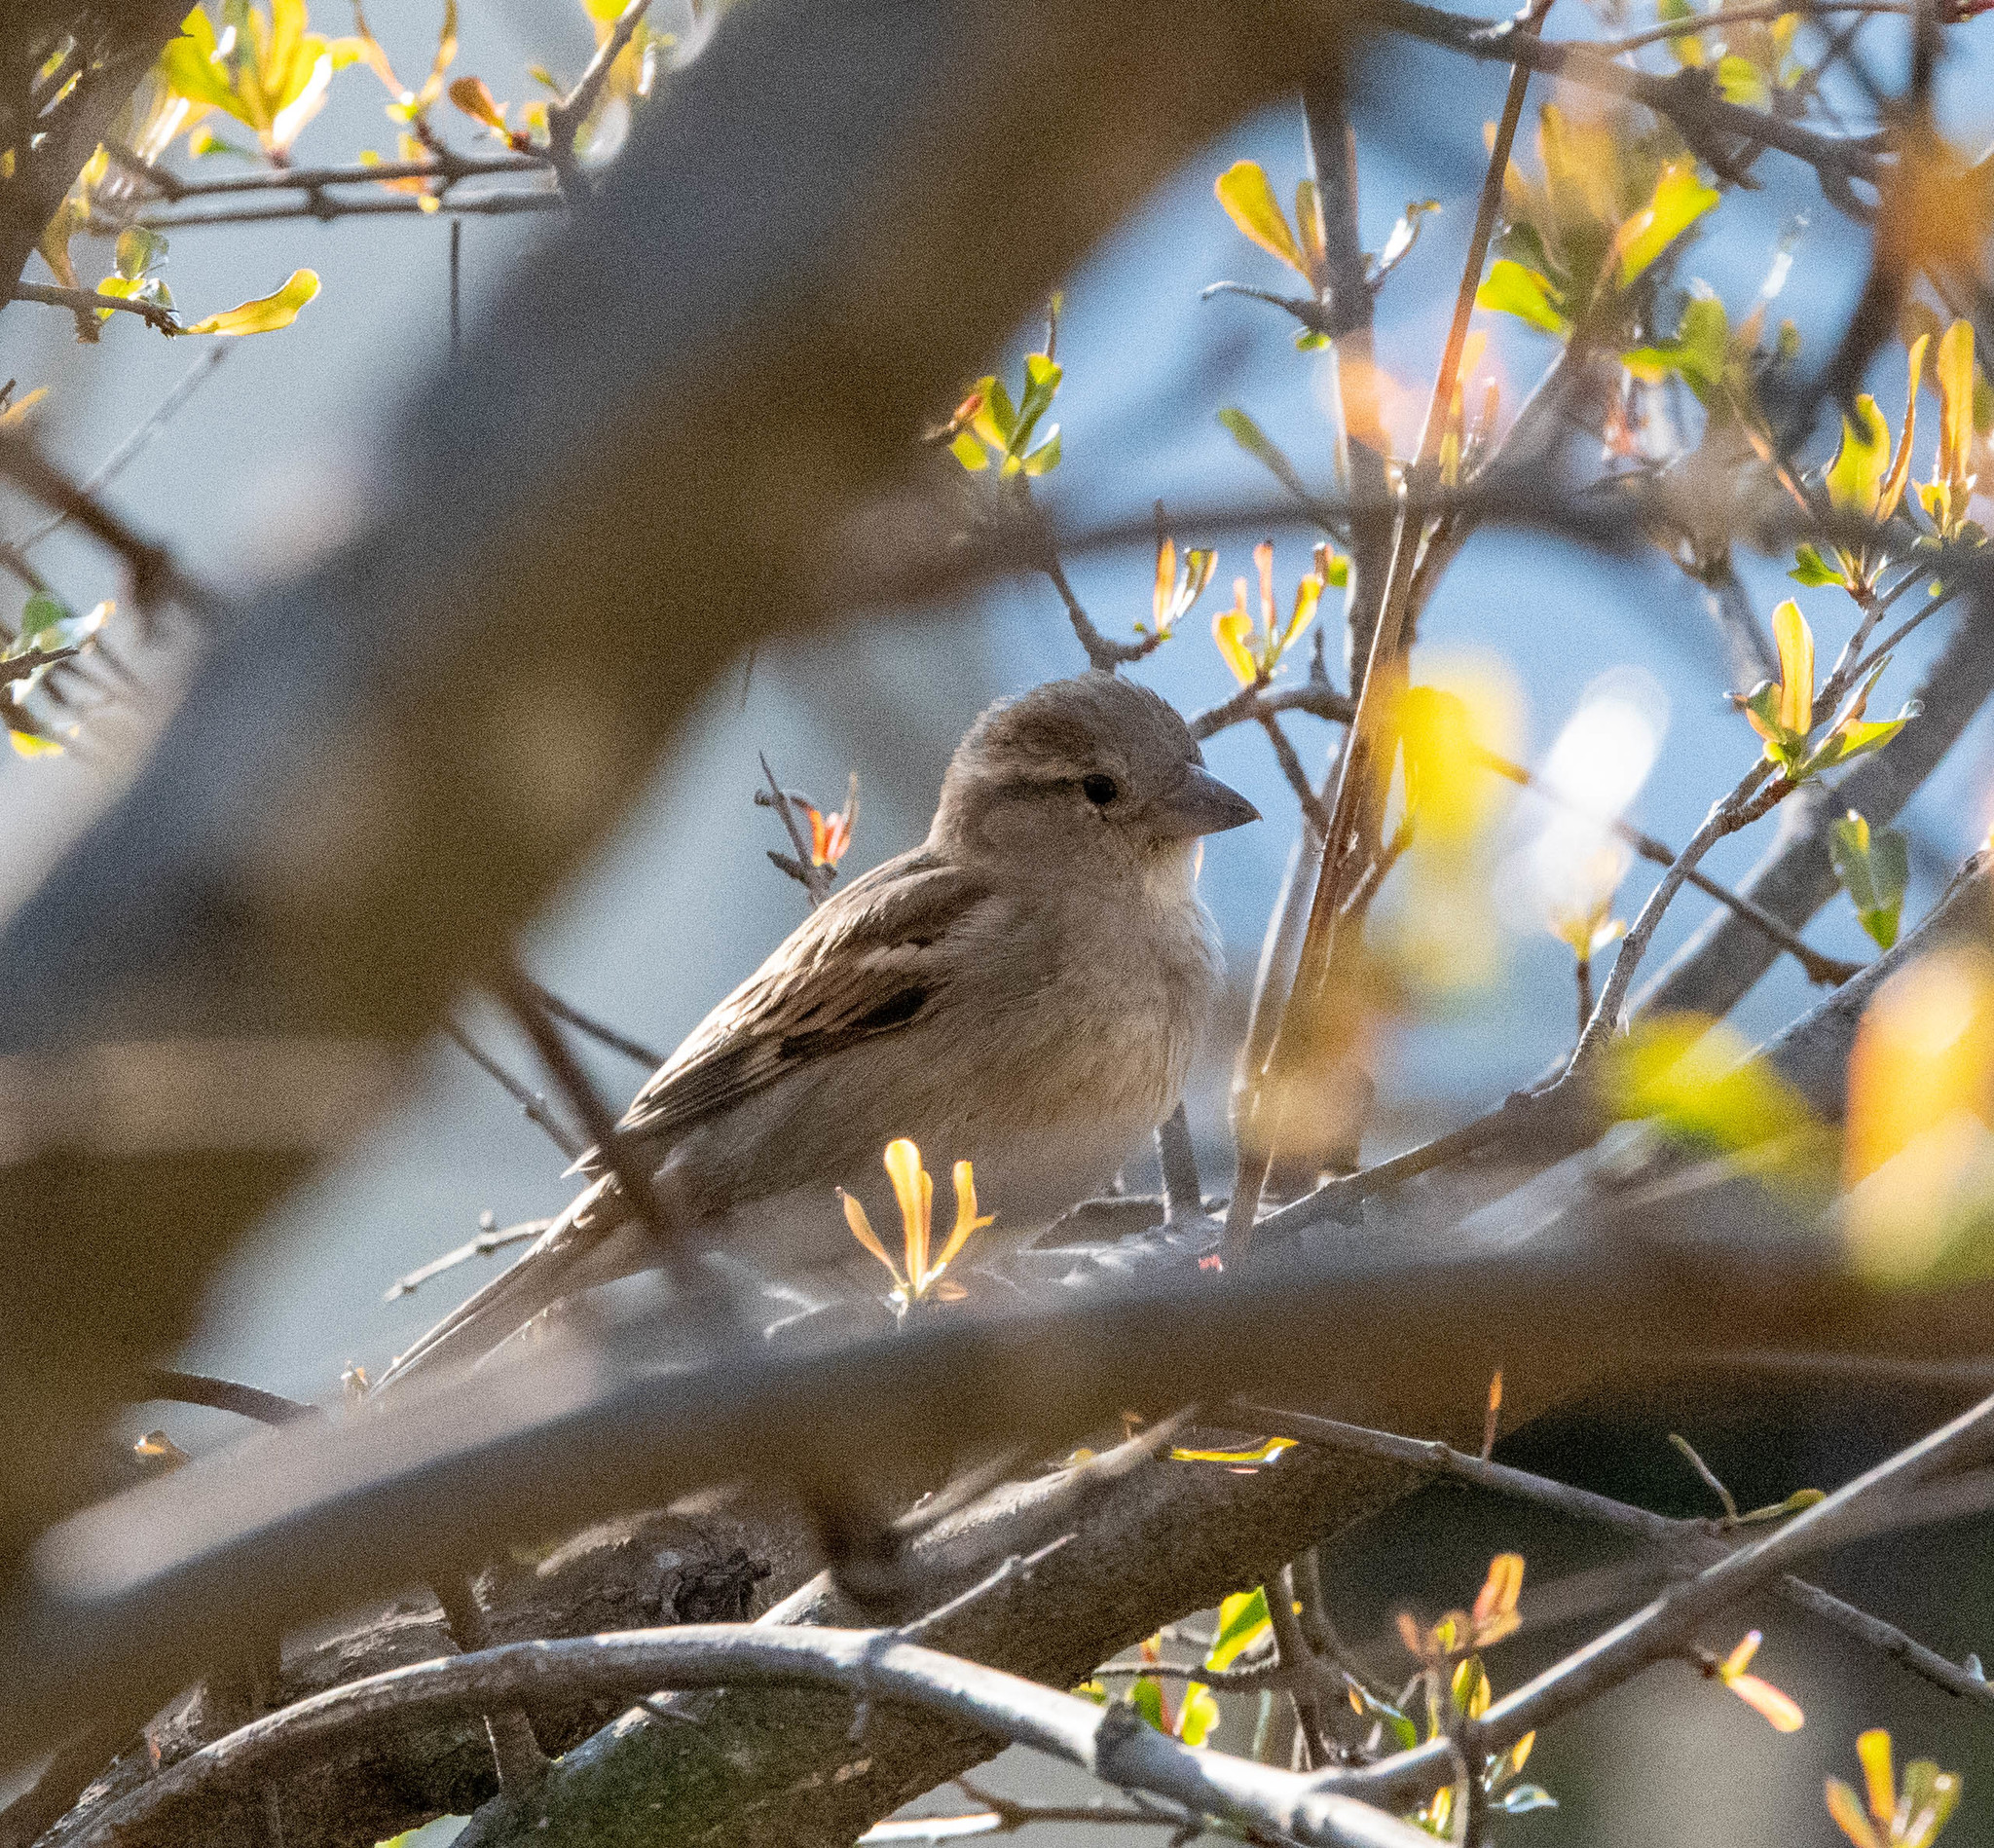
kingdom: Animalia
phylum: Chordata
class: Aves
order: Passeriformes
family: Passeridae
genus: Passer
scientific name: Passer domesticus
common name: House sparrow
